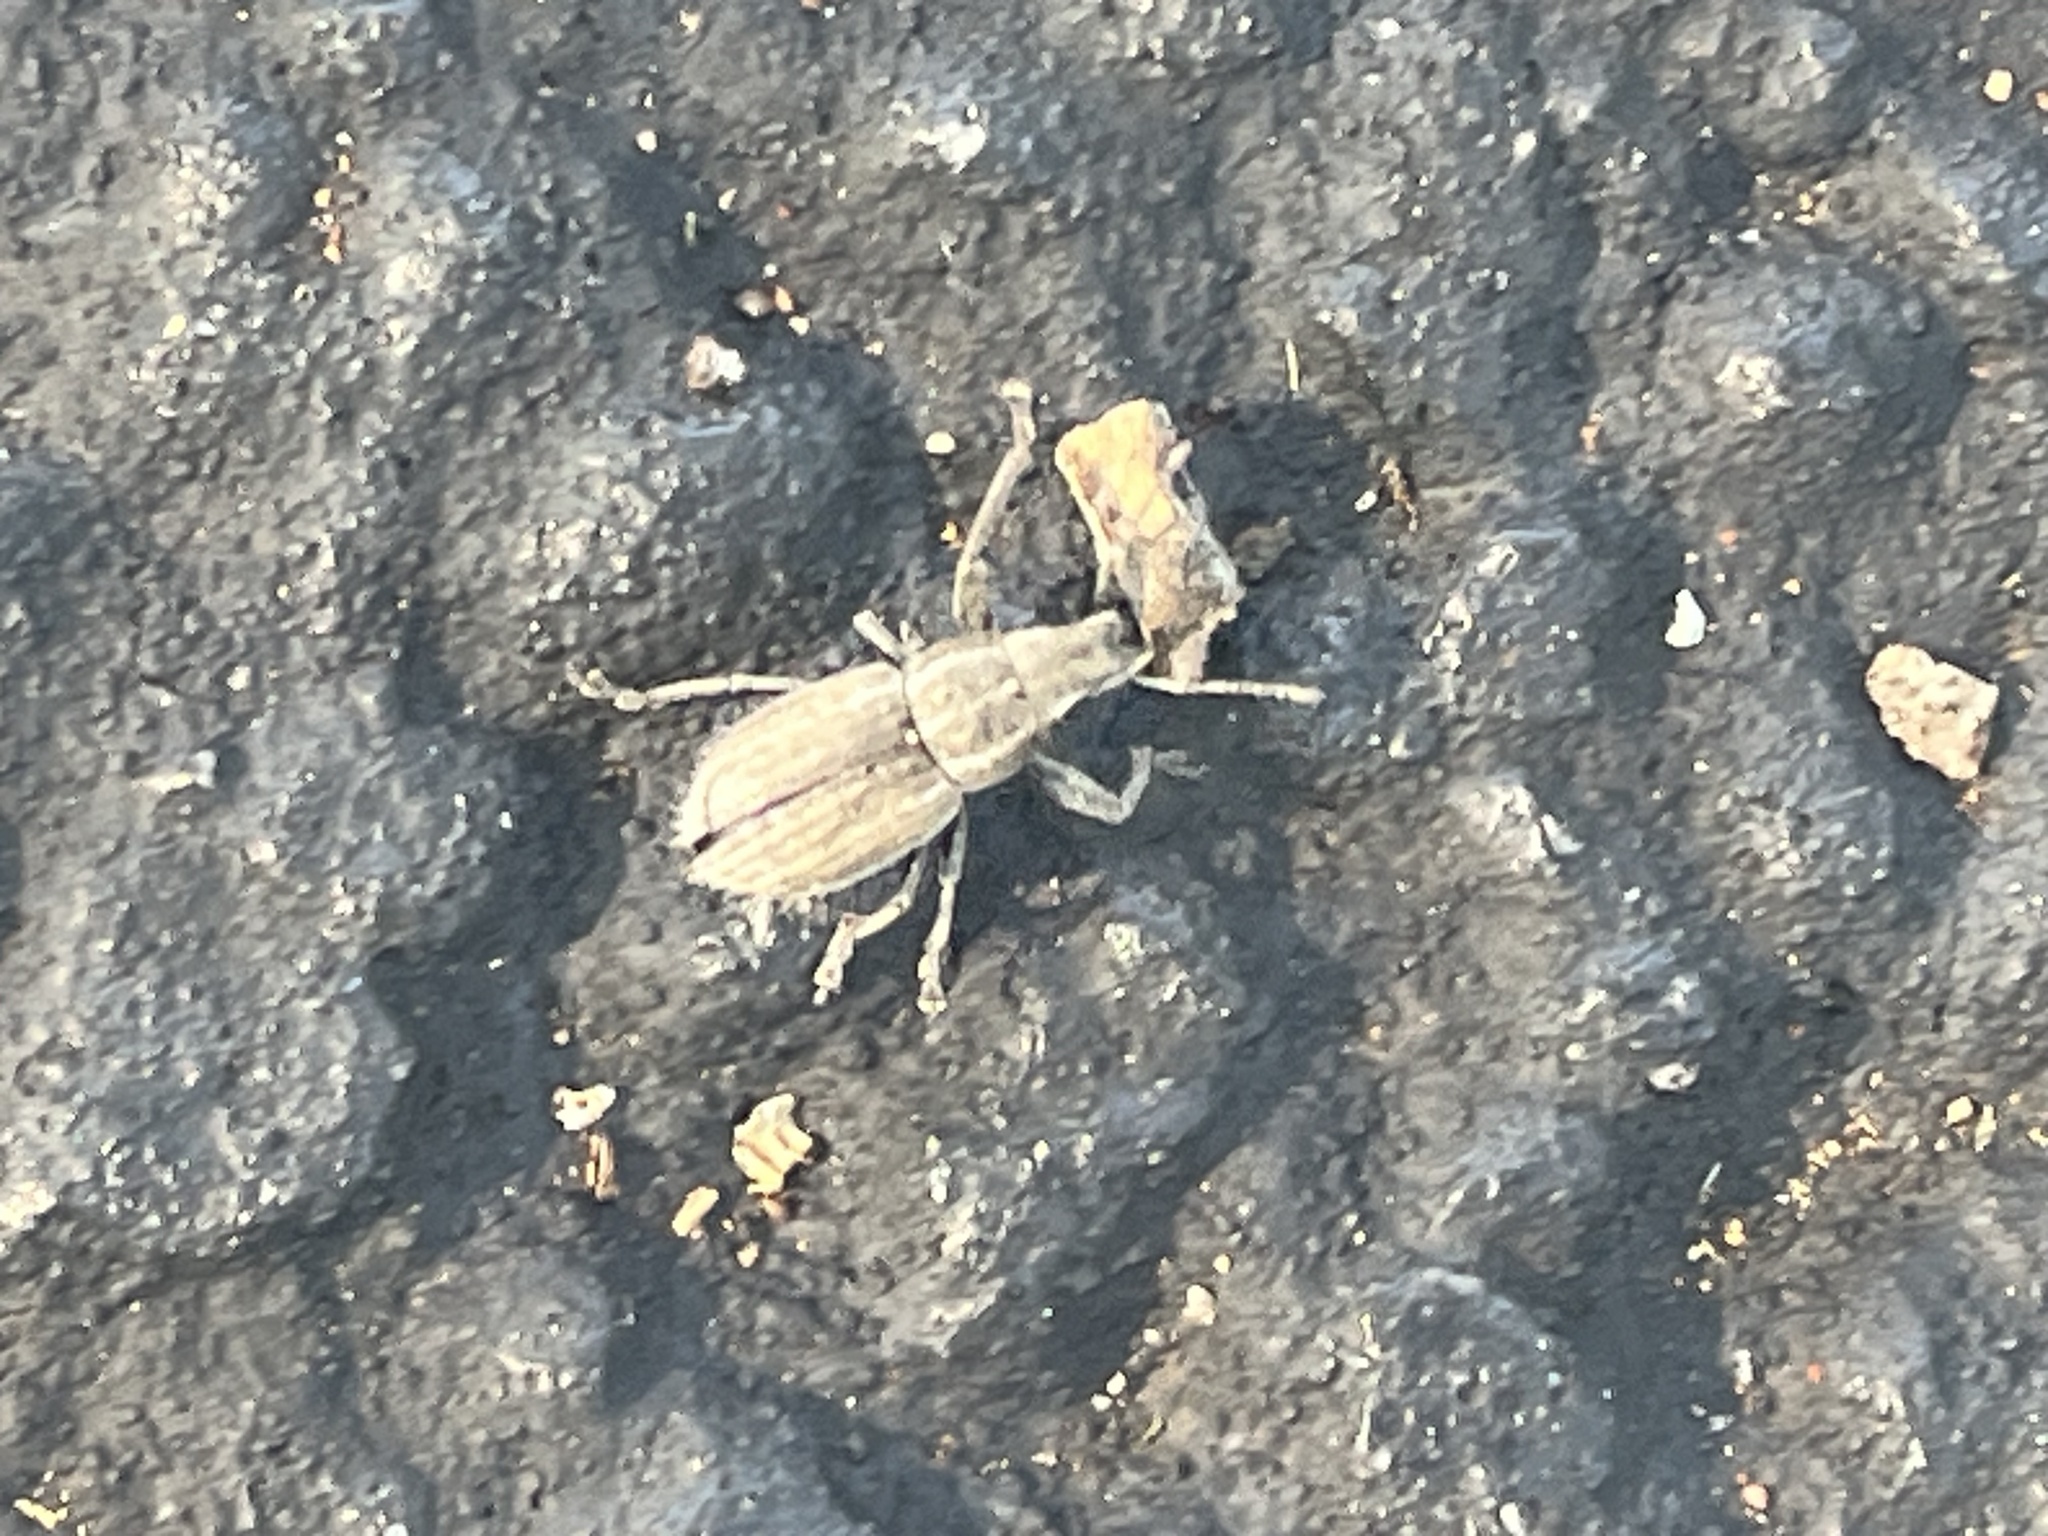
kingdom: Animalia
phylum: Arthropoda
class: Insecta
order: Coleoptera
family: Curculionidae
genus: Naupactus
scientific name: Naupactus leucoloma
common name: Whitefringed beetle
